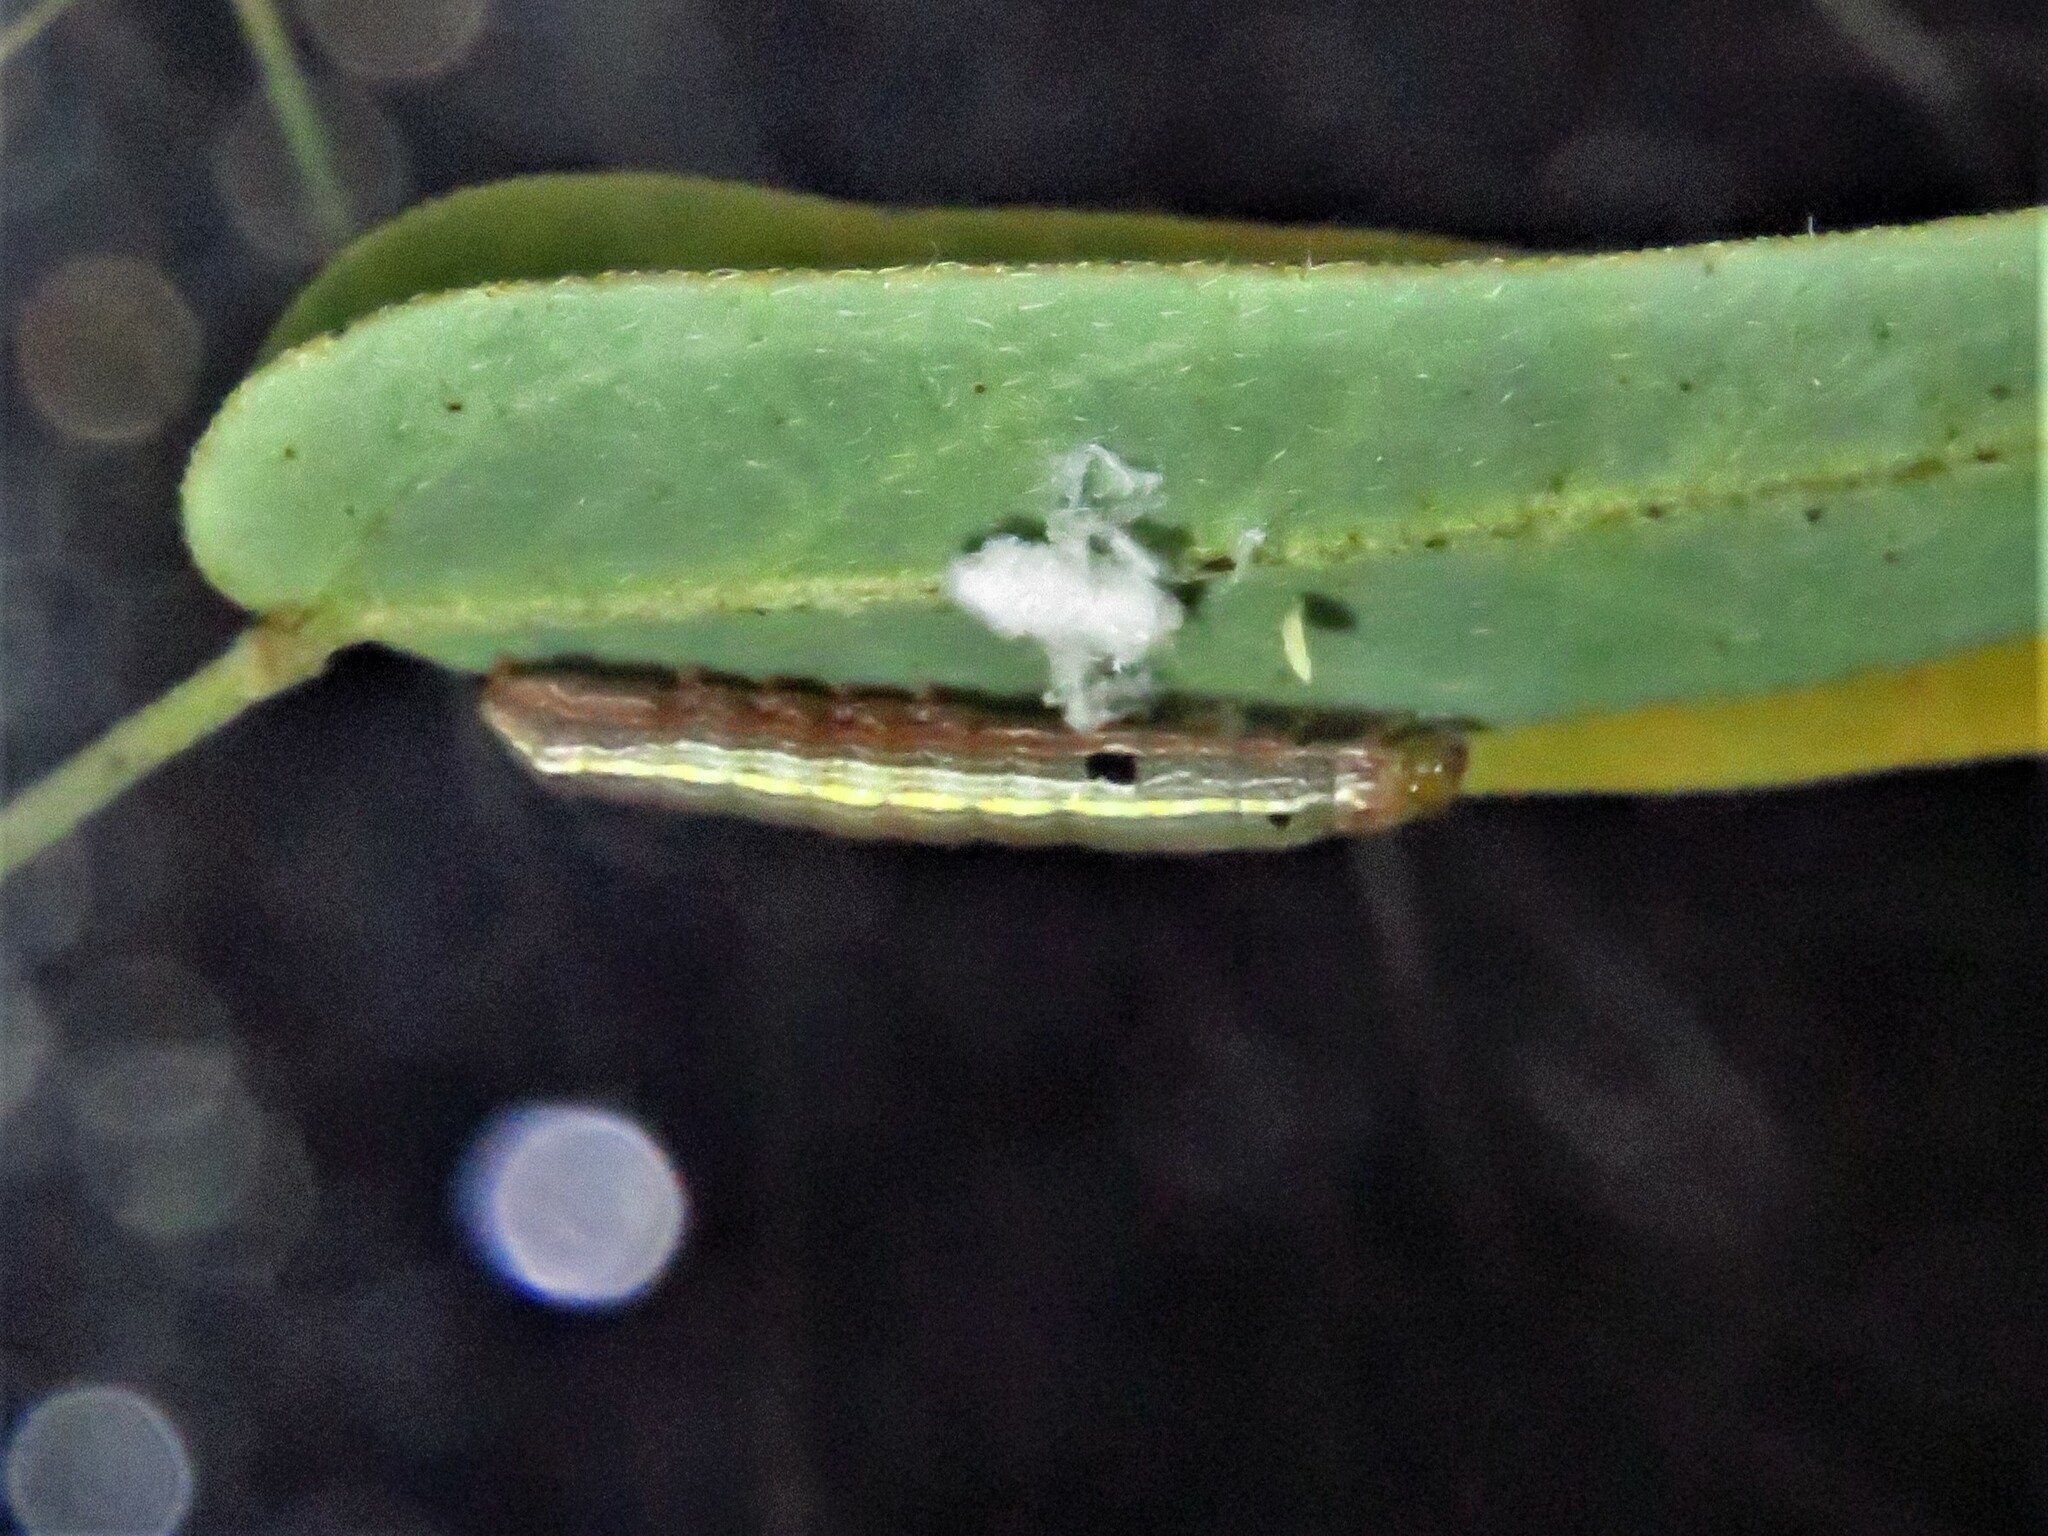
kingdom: Animalia
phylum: Arthropoda
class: Insecta
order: Lepidoptera
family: Noctuidae
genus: Spodoptera
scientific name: Spodoptera ornithogalli
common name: Yellow-striped armyworm
